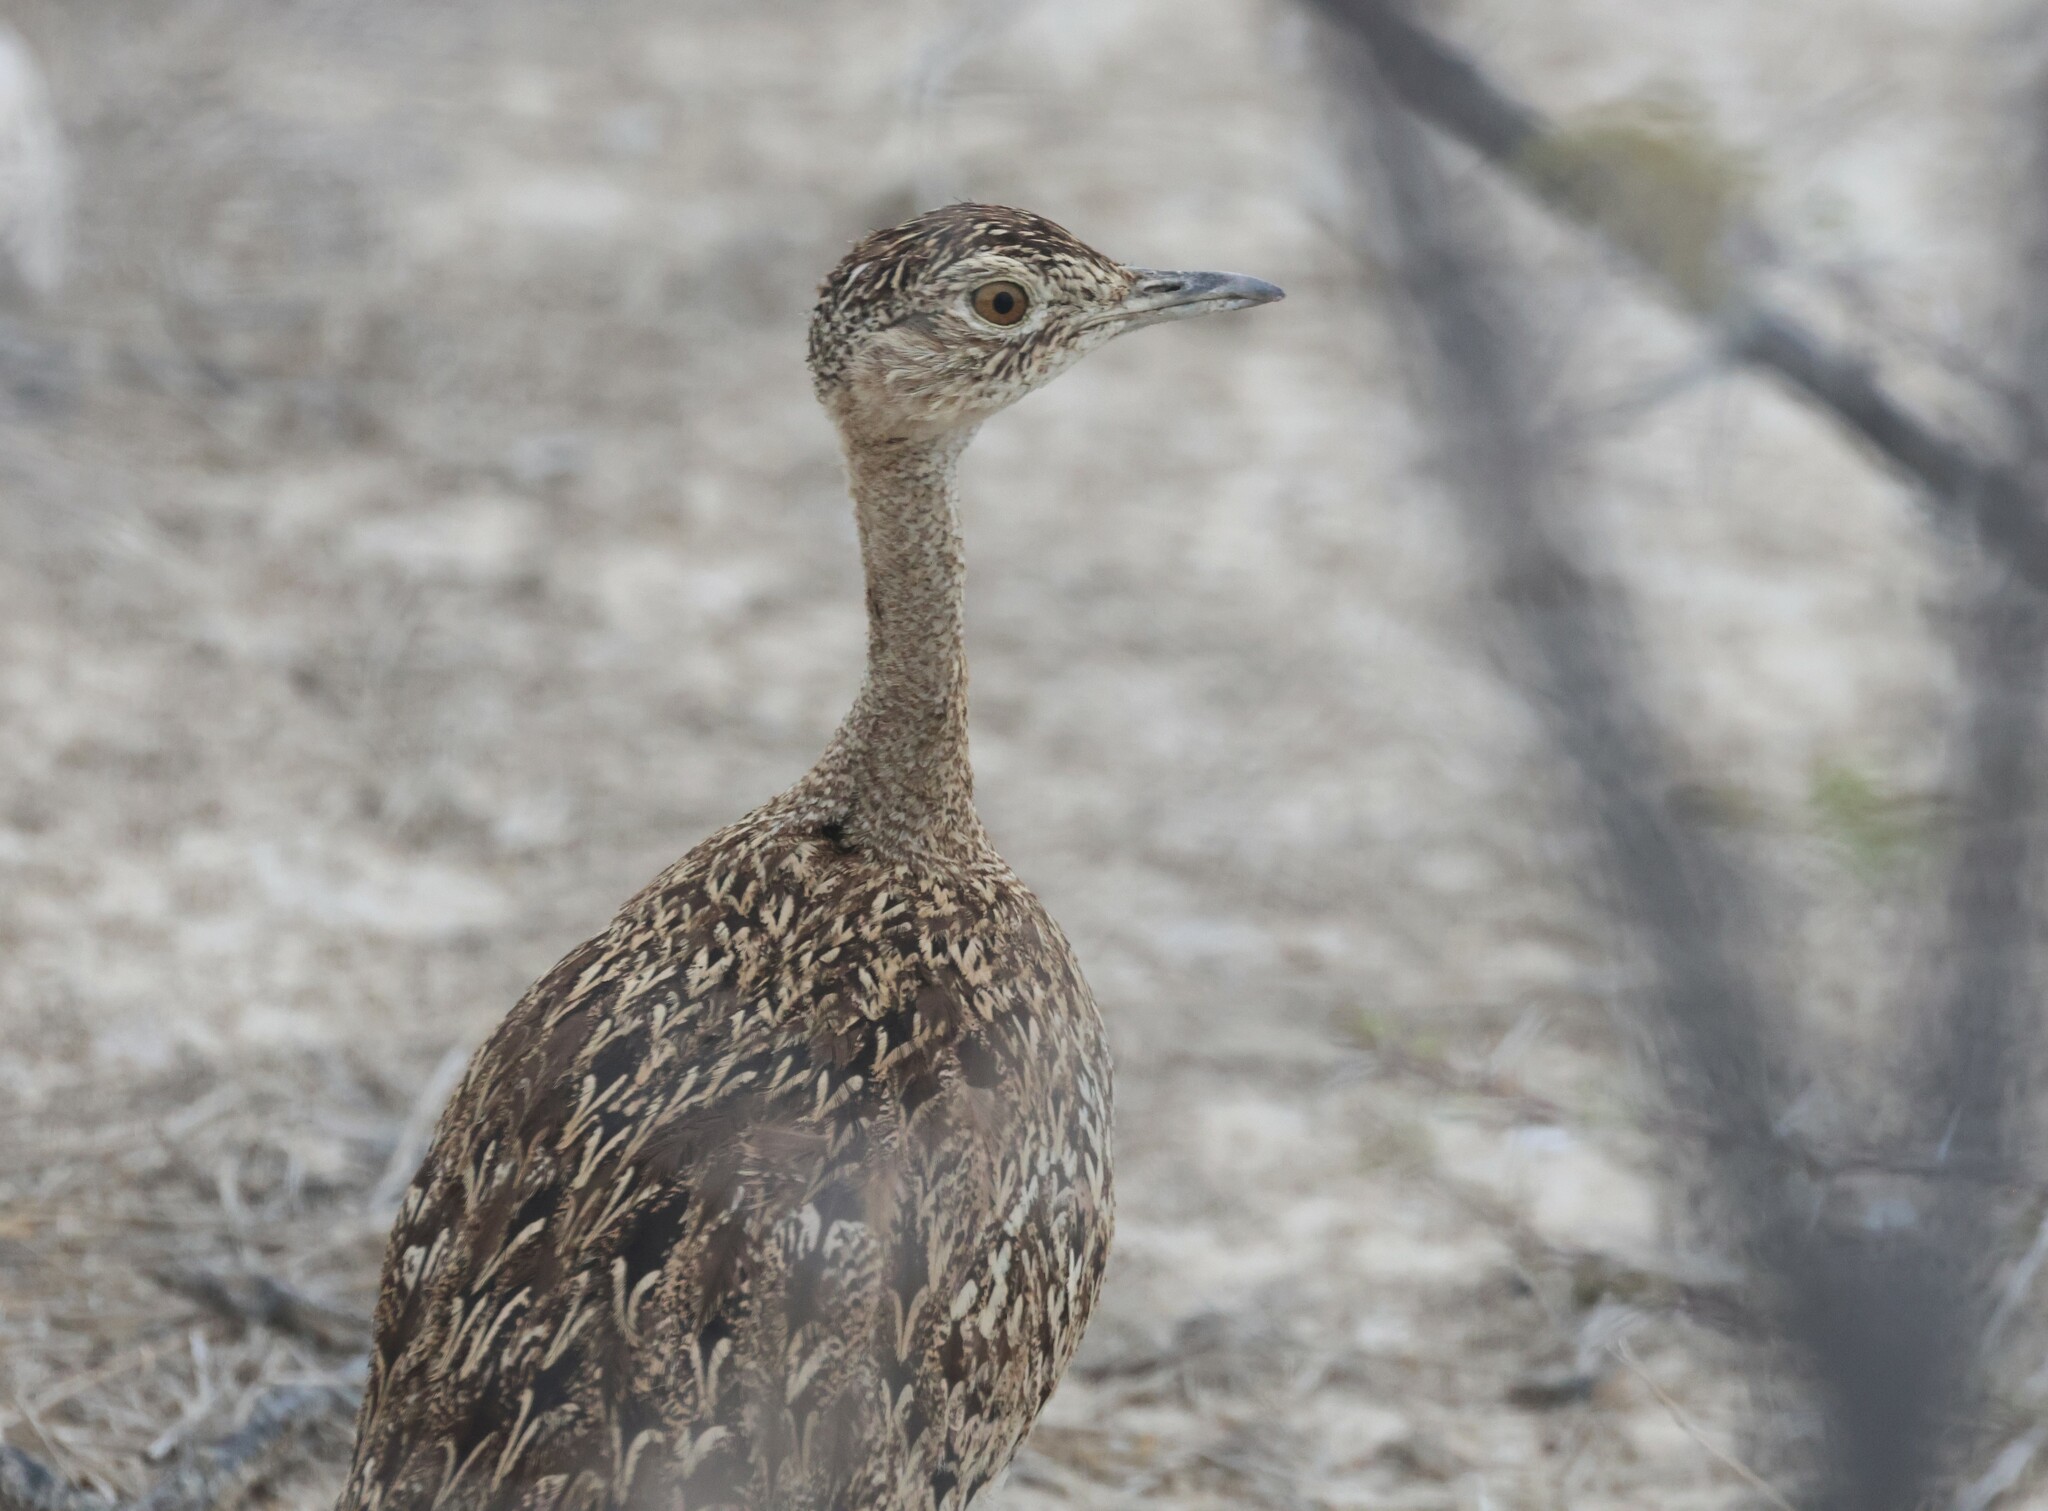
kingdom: Animalia
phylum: Chordata
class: Aves
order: Otidiformes
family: Otididae
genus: Lophotis
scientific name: Lophotis ruficrista
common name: Red-crested korhaan
